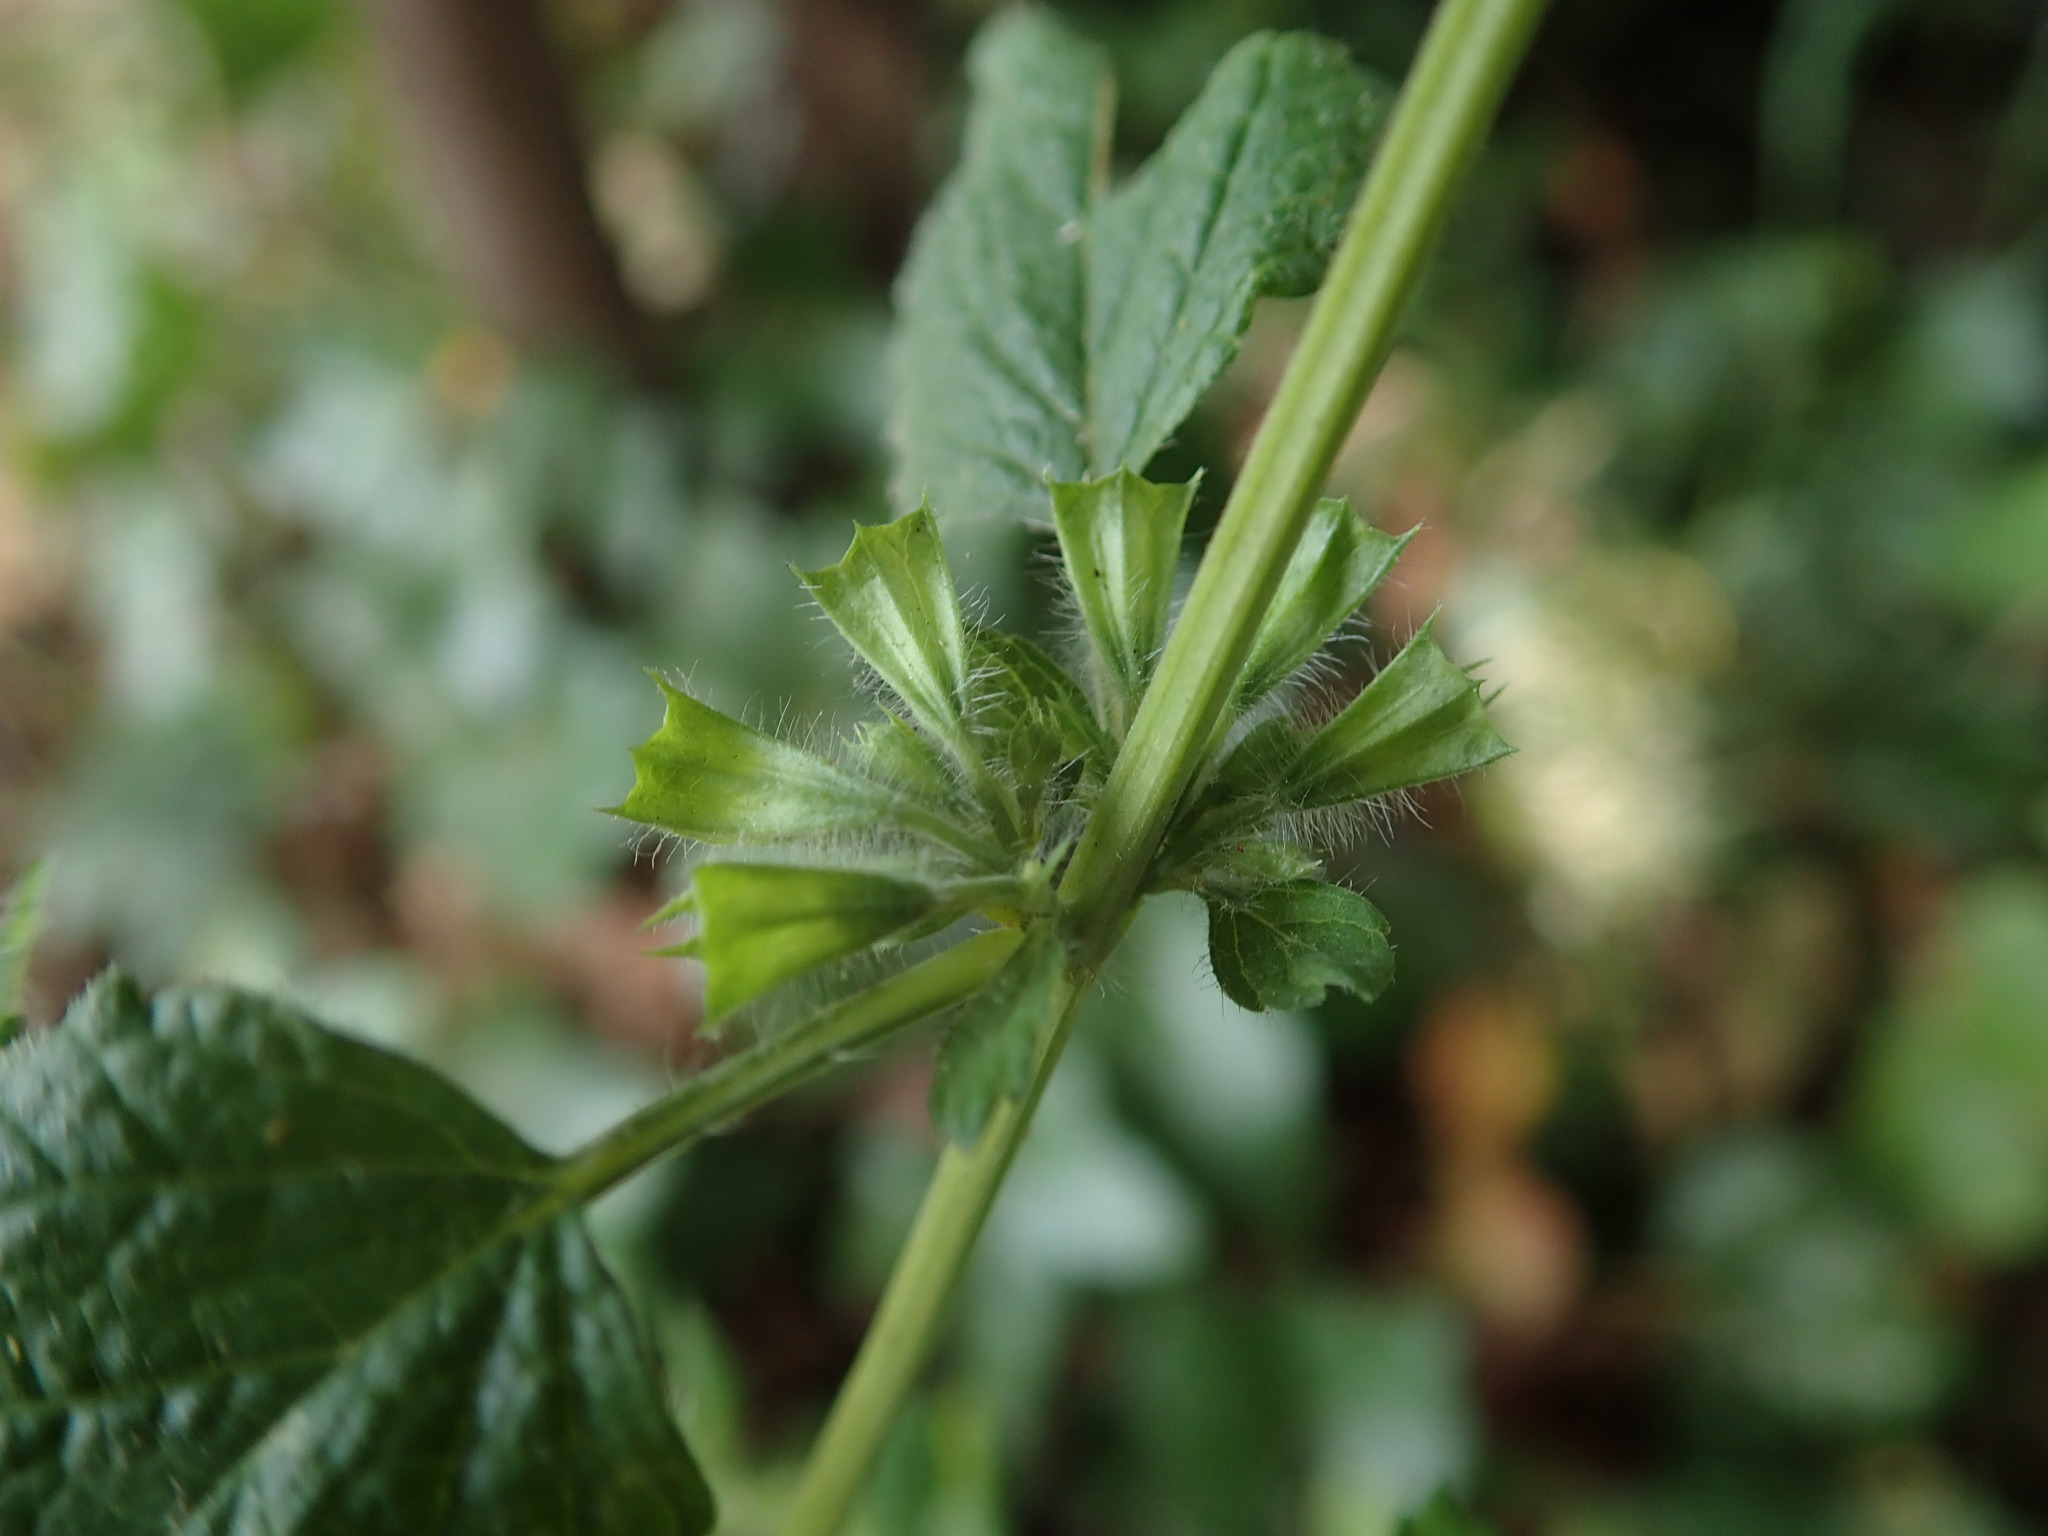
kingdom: Plantae
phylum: Tracheophyta
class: Magnoliopsida
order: Lamiales
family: Lamiaceae
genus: Melissa
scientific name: Melissa officinalis
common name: Balm
